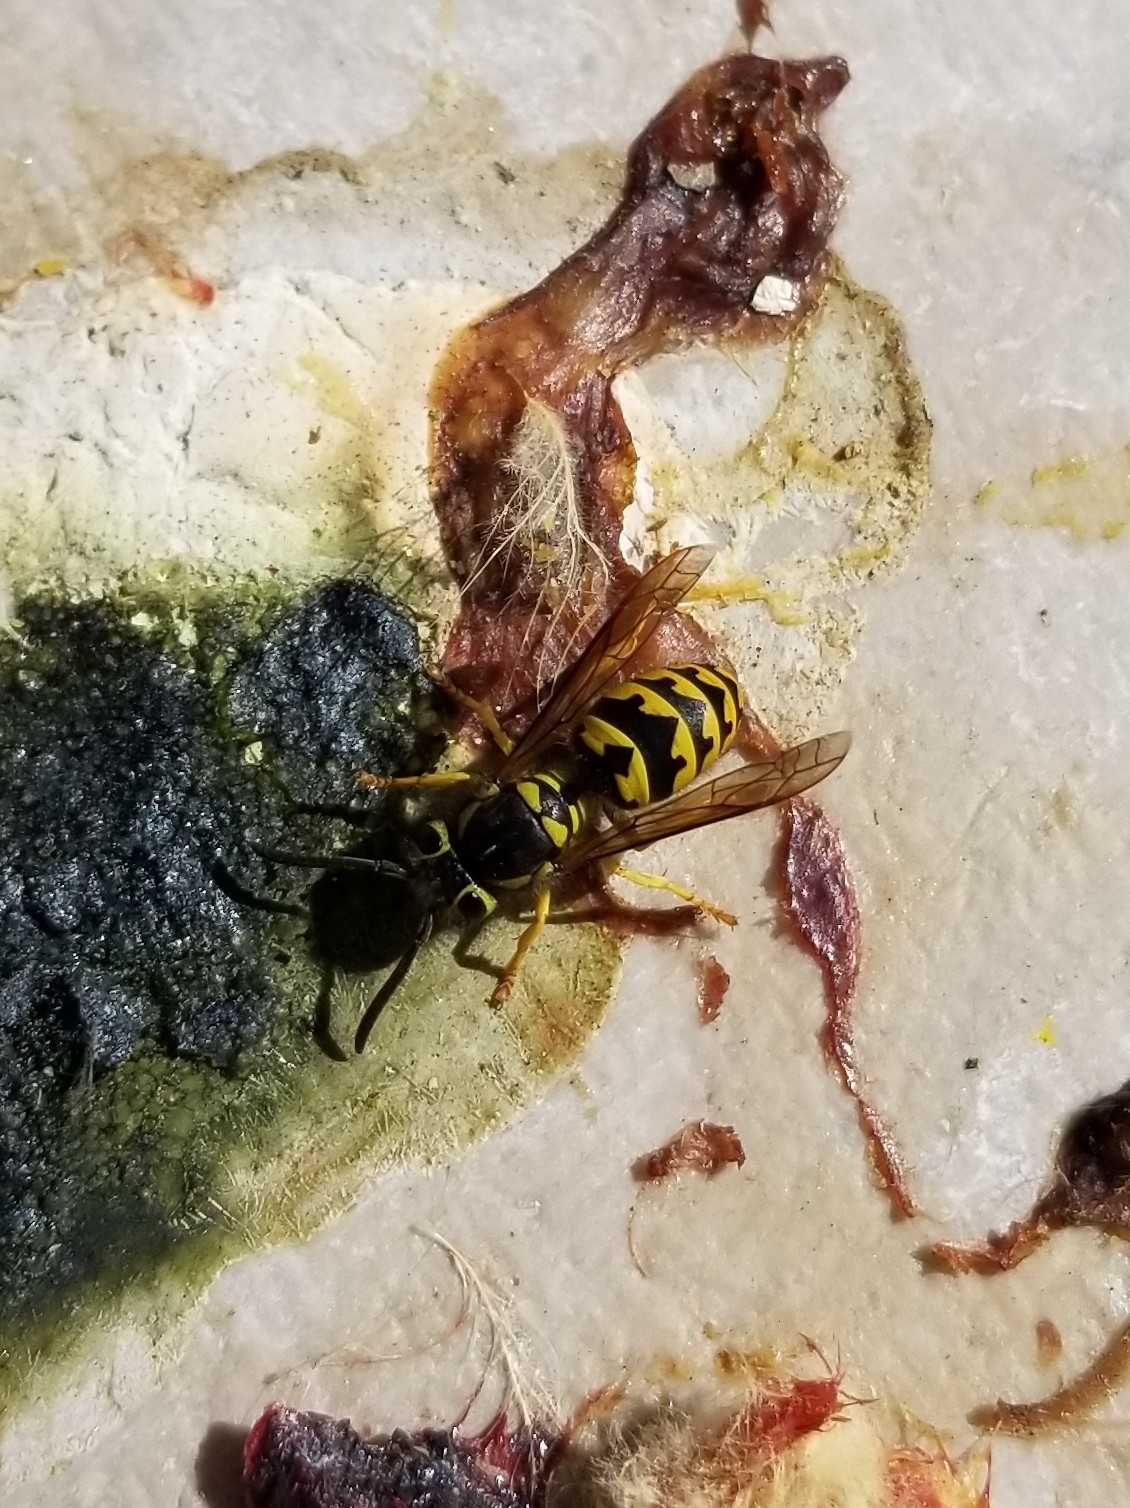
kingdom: Animalia
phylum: Arthropoda
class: Insecta
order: Hymenoptera
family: Vespidae
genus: Vespula
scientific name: Vespula pensylvanica
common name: Western yellowjacket
